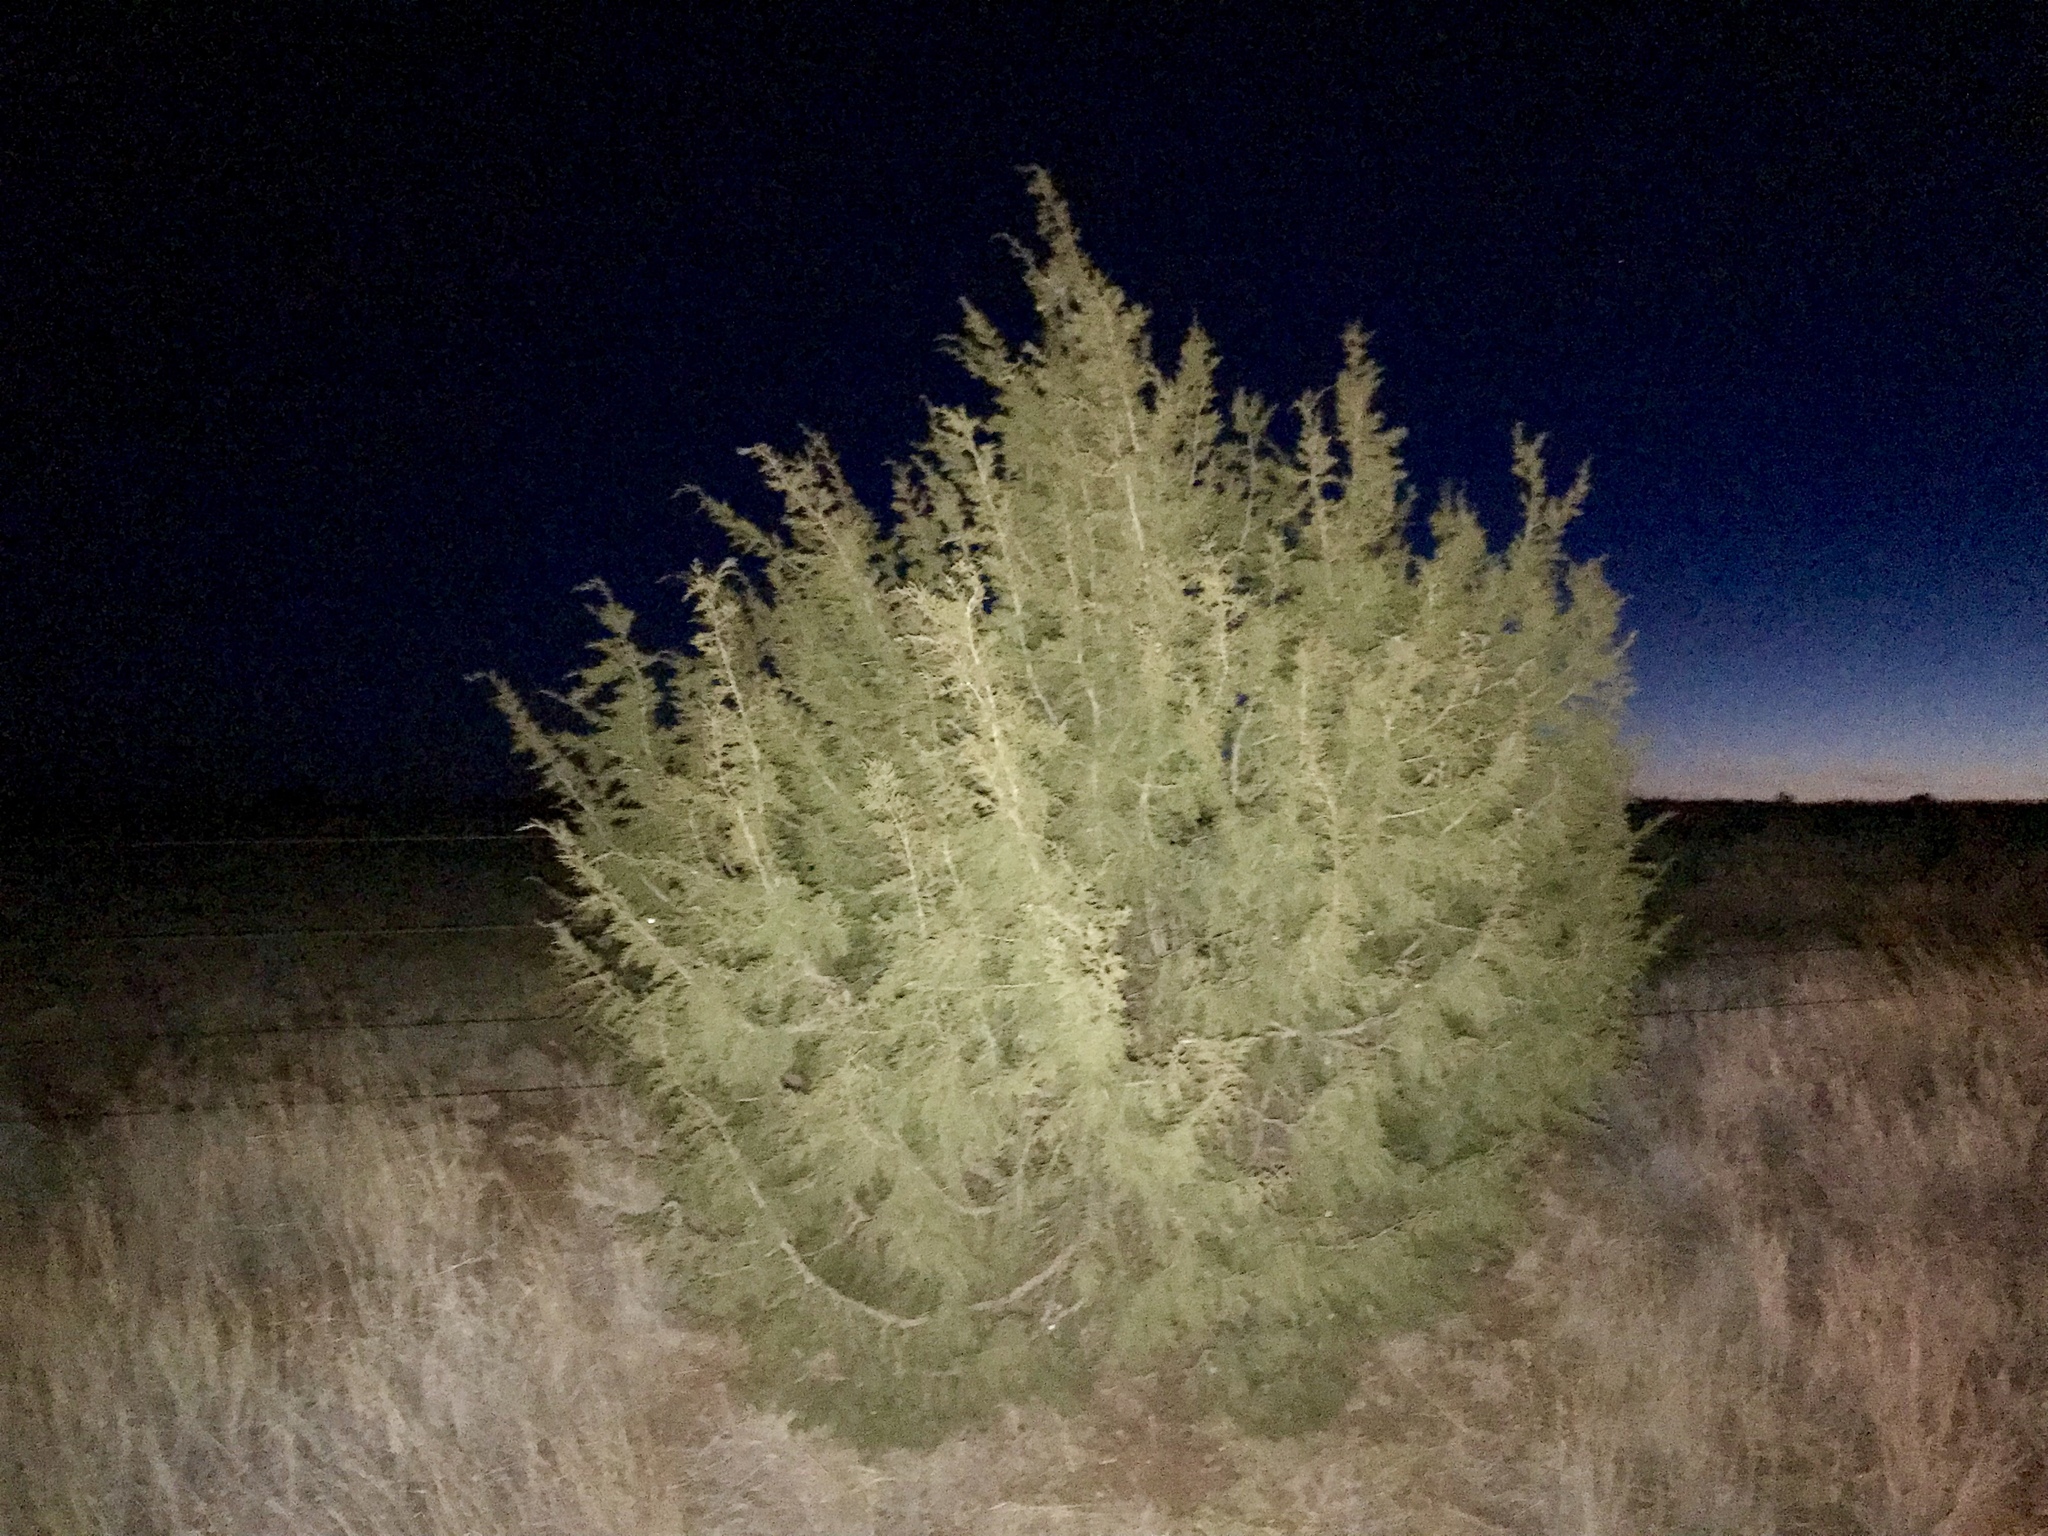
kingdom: Plantae
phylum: Tracheophyta
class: Pinopsida
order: Pinales
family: Cupressaceae
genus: Juniperus
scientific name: Juniperus monosperma
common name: One-seed juniper
